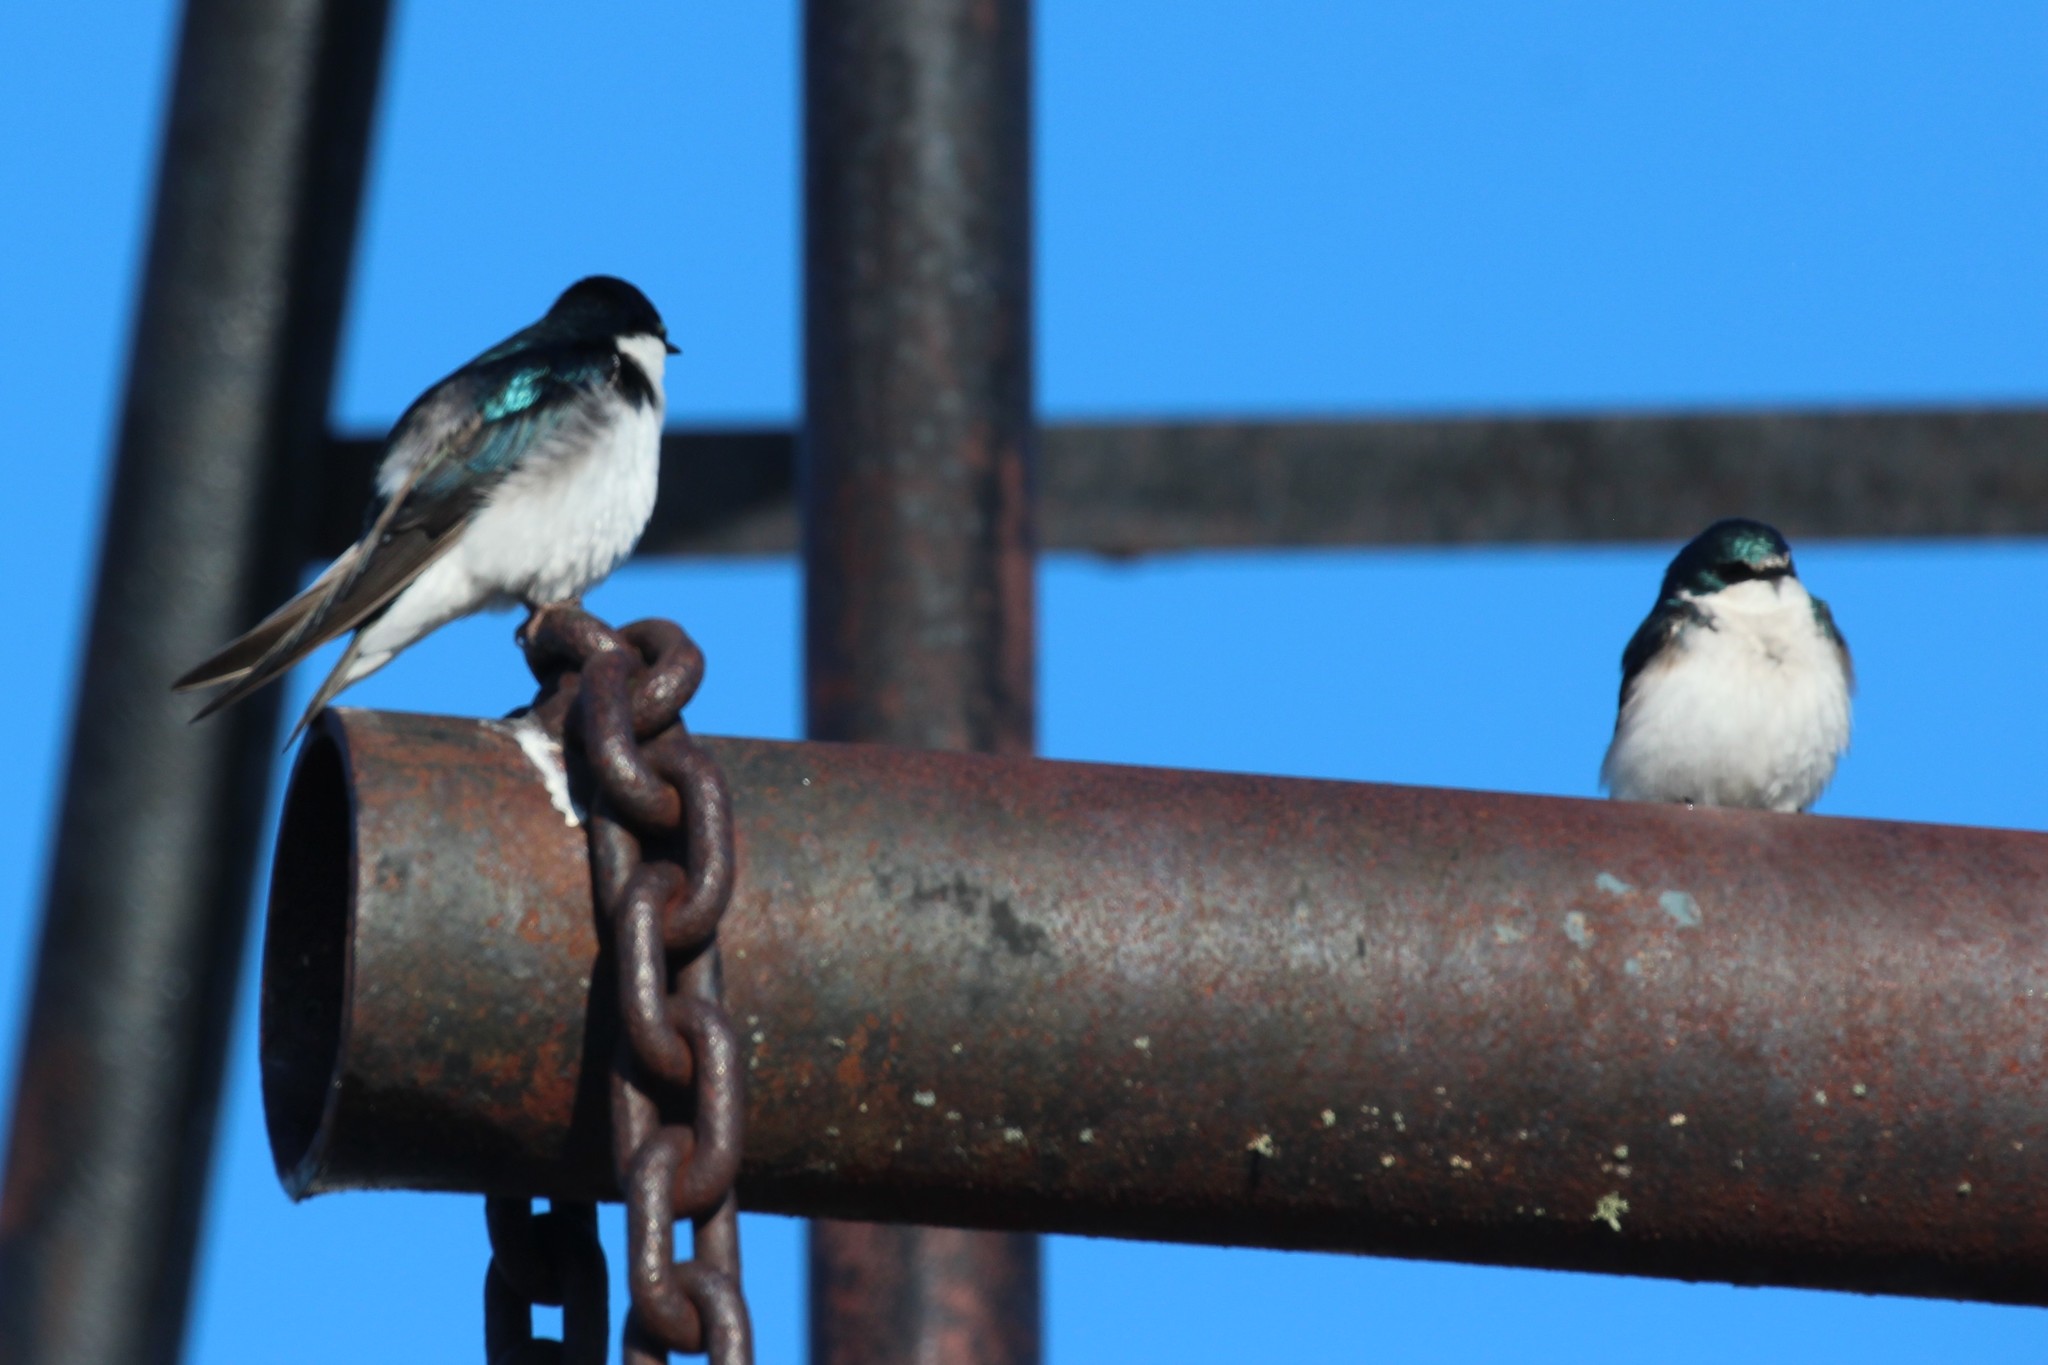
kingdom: Animalia
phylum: Chordata
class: Aves
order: Passeriformes
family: Hirundinidae
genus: Tachycineta
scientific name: Tachycineta bicolor
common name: Tree swallow
